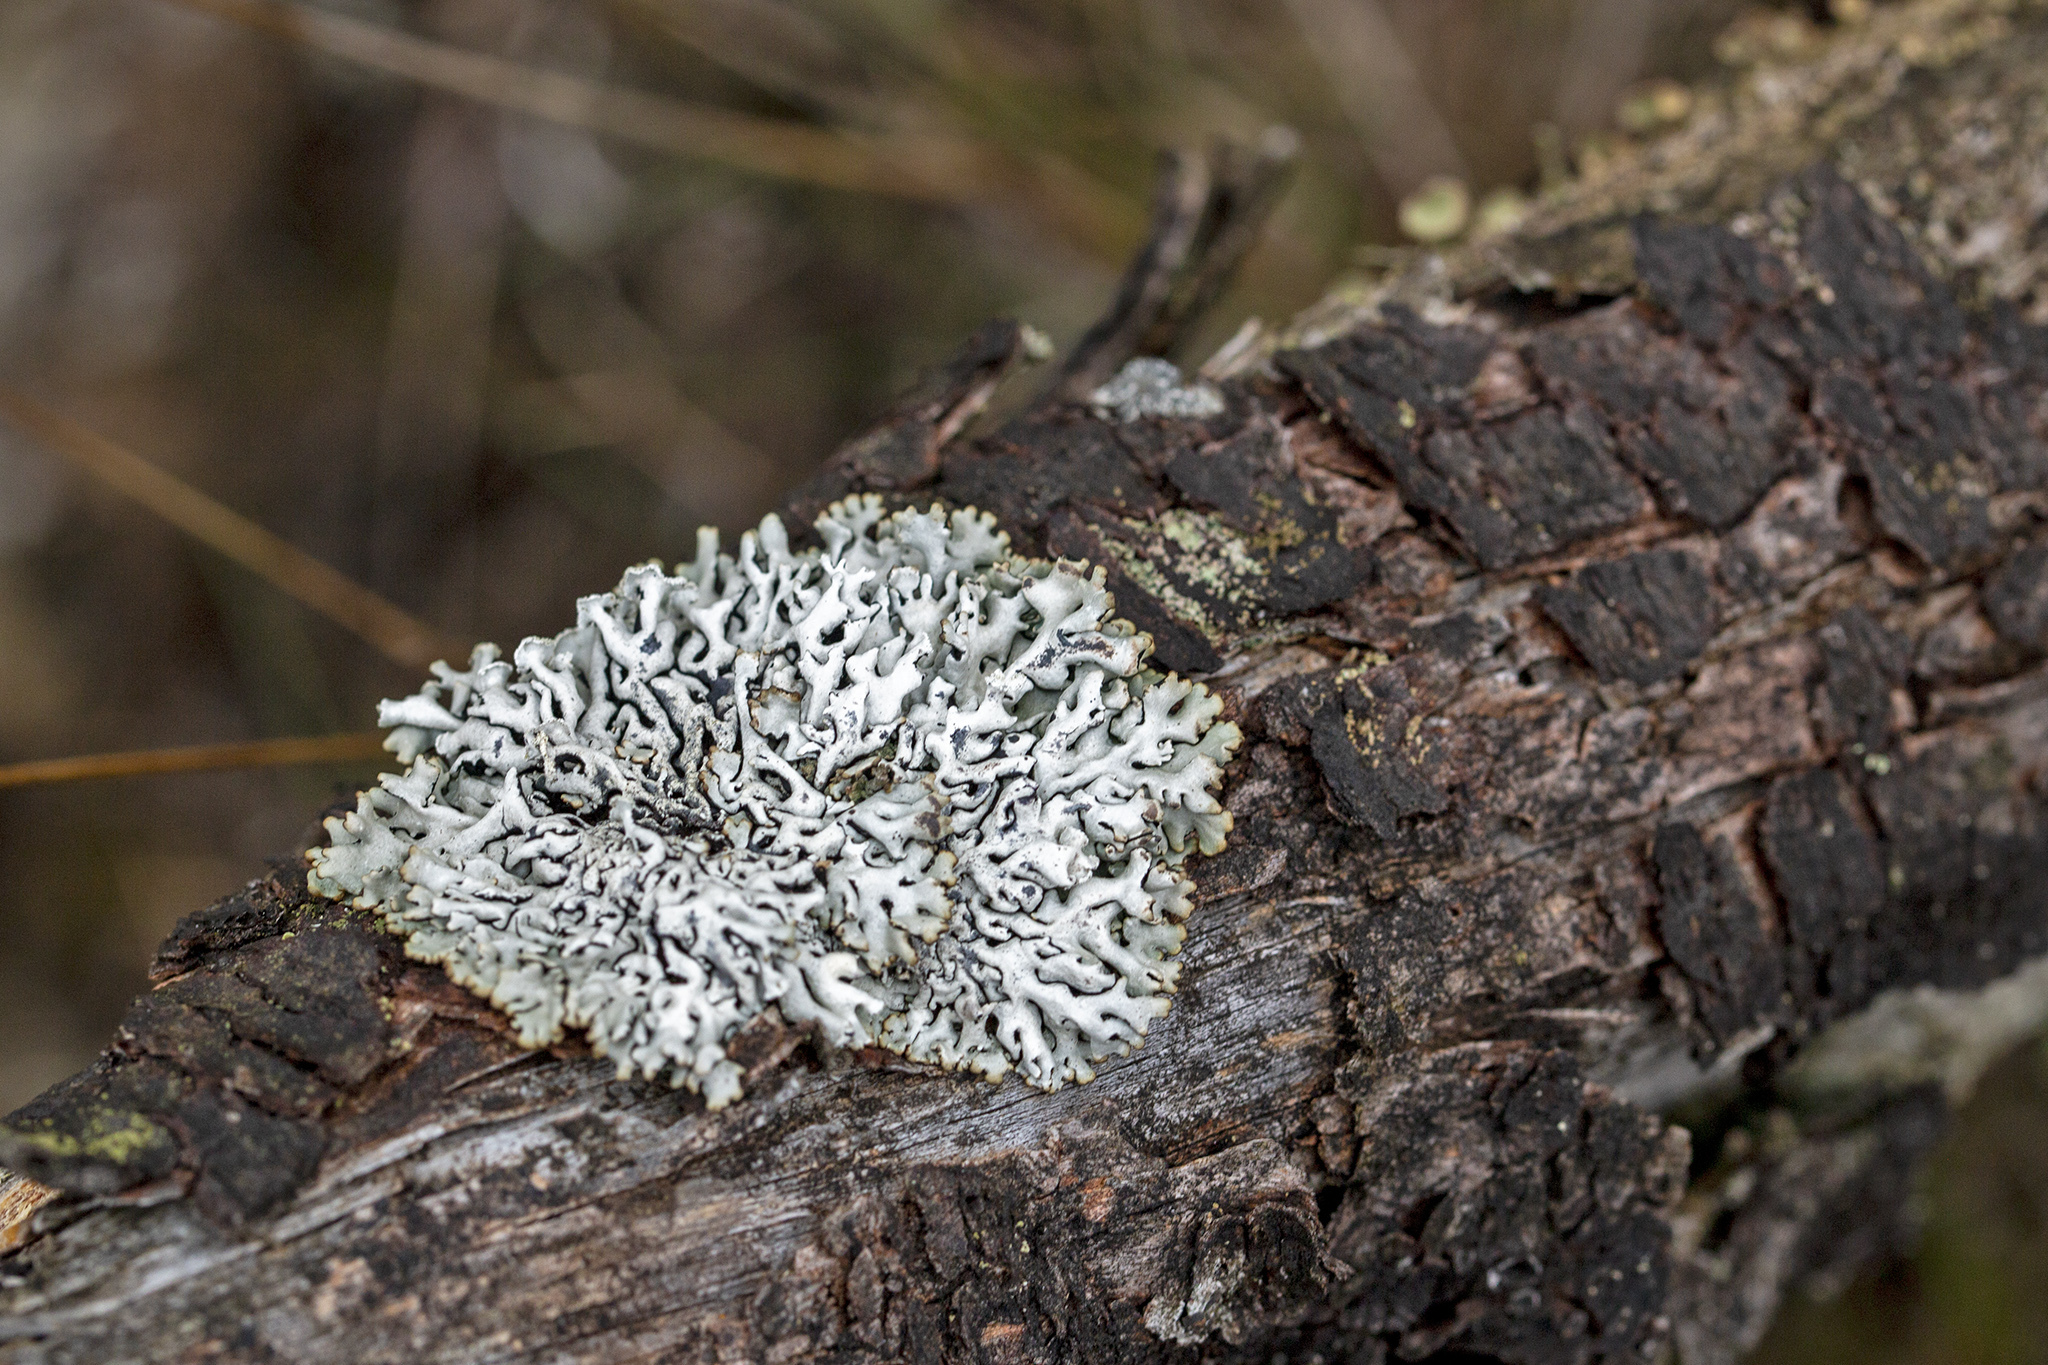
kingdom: Fungi
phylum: Ascomycota
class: Lecanoromycetes
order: Lecanorales
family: Parmeliaceae
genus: Hypogymnia
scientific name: Hypogymnia physodes
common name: Dark crottle
